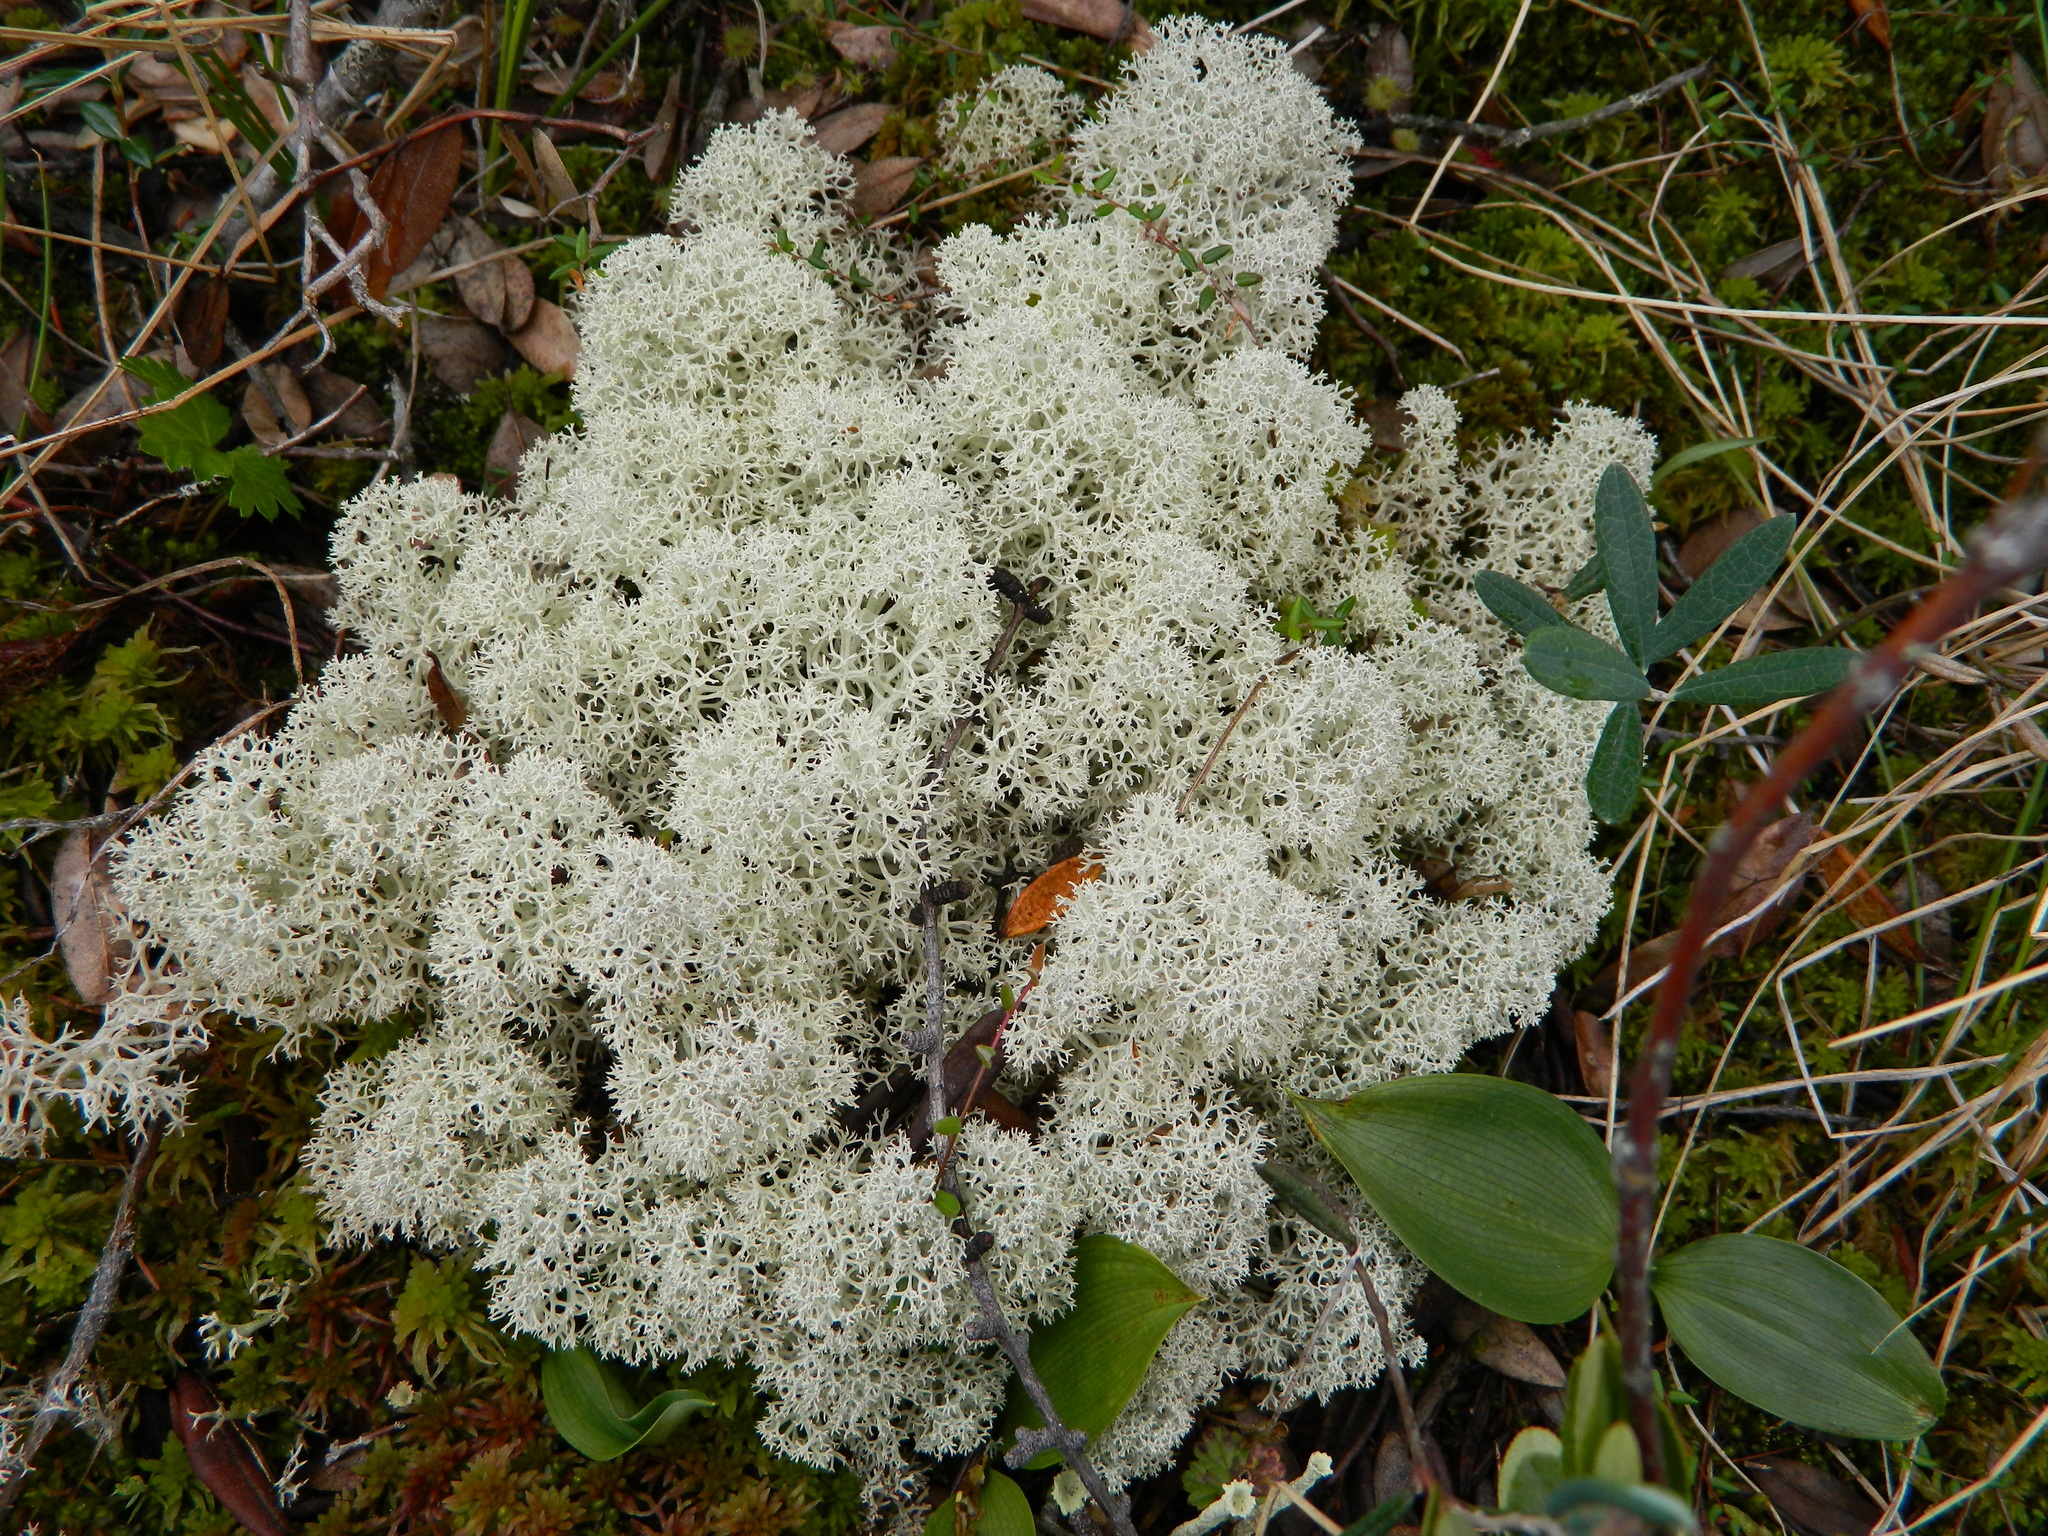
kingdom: Fungi
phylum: Ascomycota
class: Lecanoromycetes
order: Lecanorales
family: Cladoniaceae
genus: Cladonia
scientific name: Cladonia stellaris
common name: Star-tipped reindeer lichen
